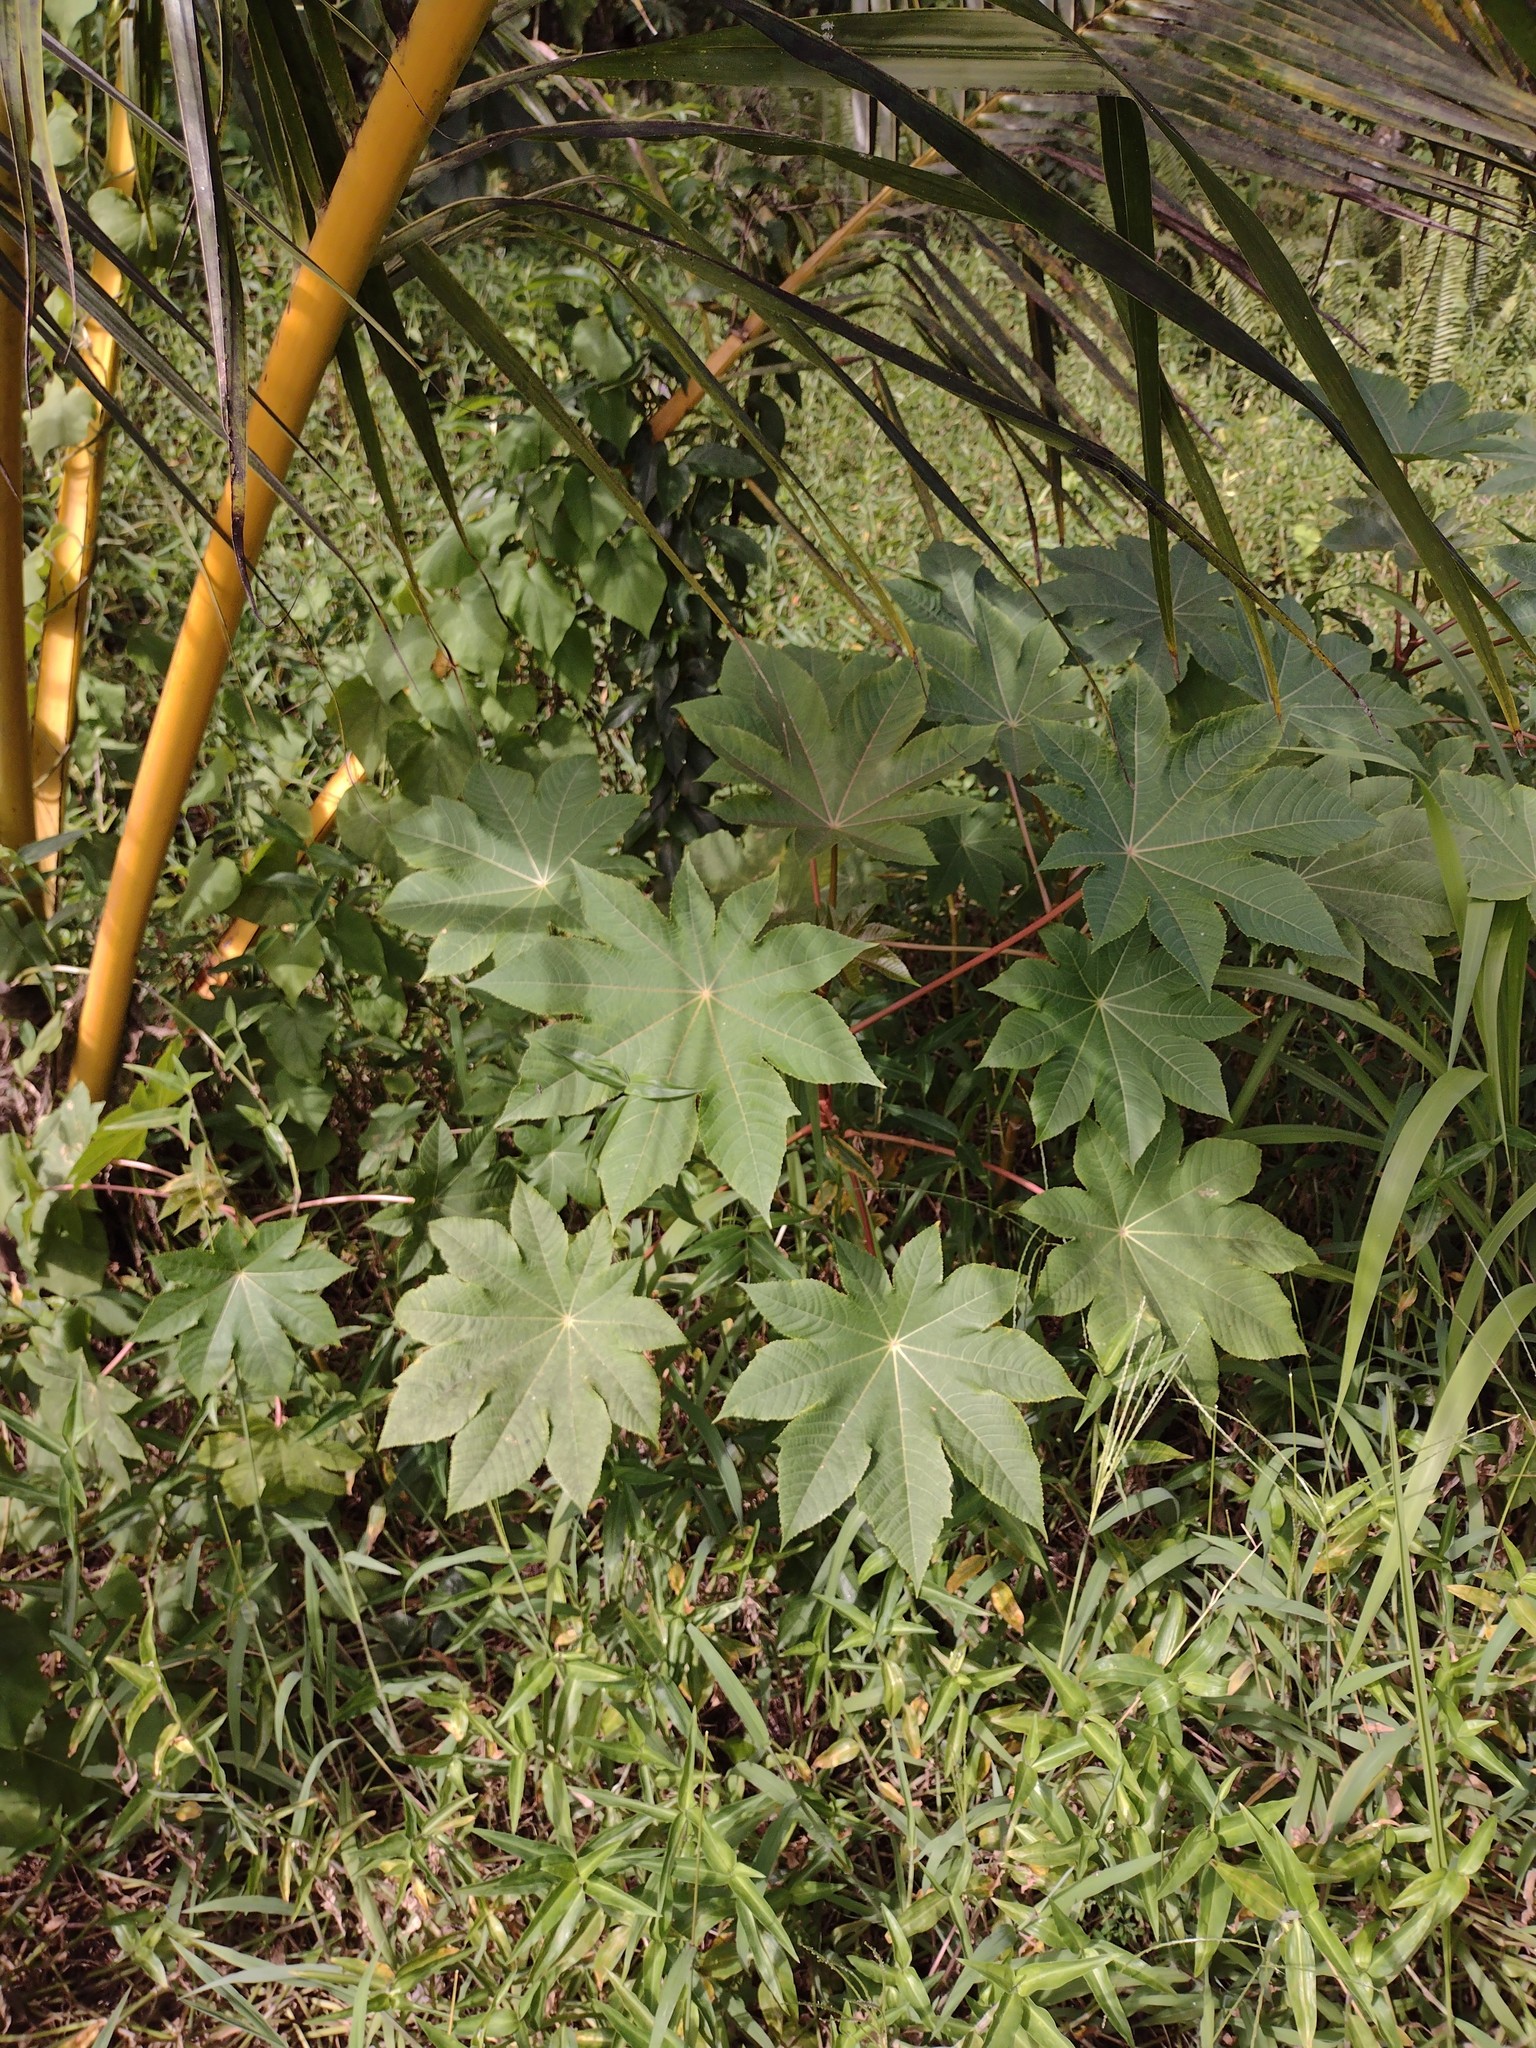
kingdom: Plantae
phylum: Tracheophyta
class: Magnoliopsida
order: Malpighiales
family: Euphorbiaceae
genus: Ricinus
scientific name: Ricinus communis
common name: Castor-oil-plant
